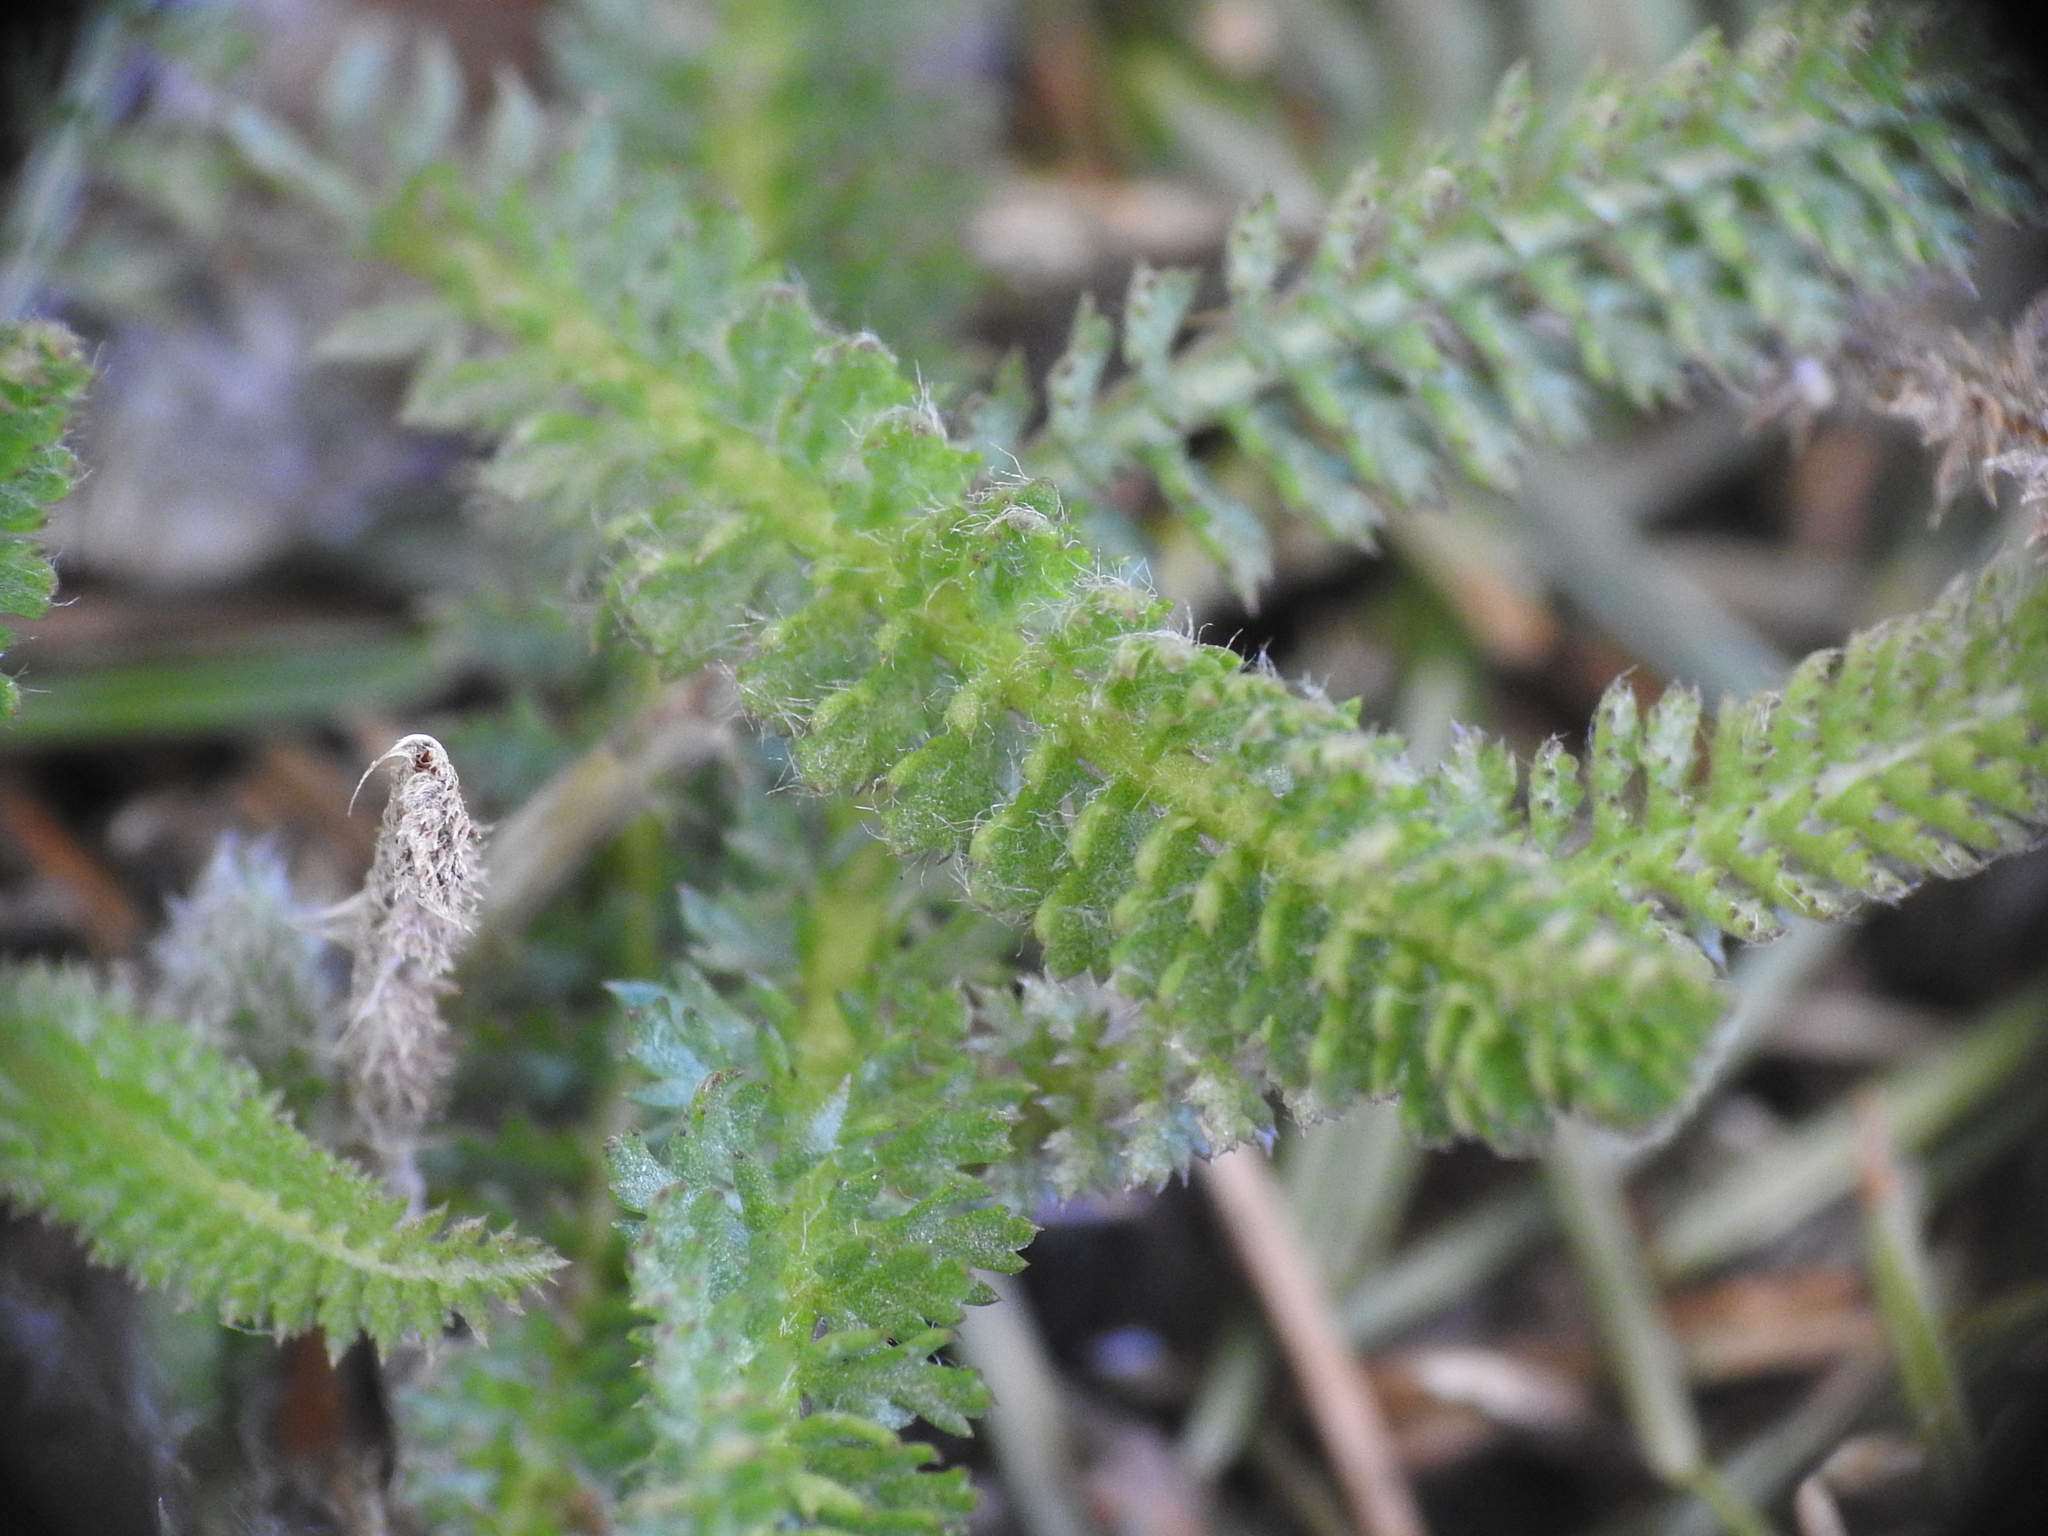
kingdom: Plantae
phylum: Tracheophyta
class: Magnoliopsida
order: Asterales
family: Asteraceae
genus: Achillea
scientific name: Achillea millefolium
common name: Yarrow
